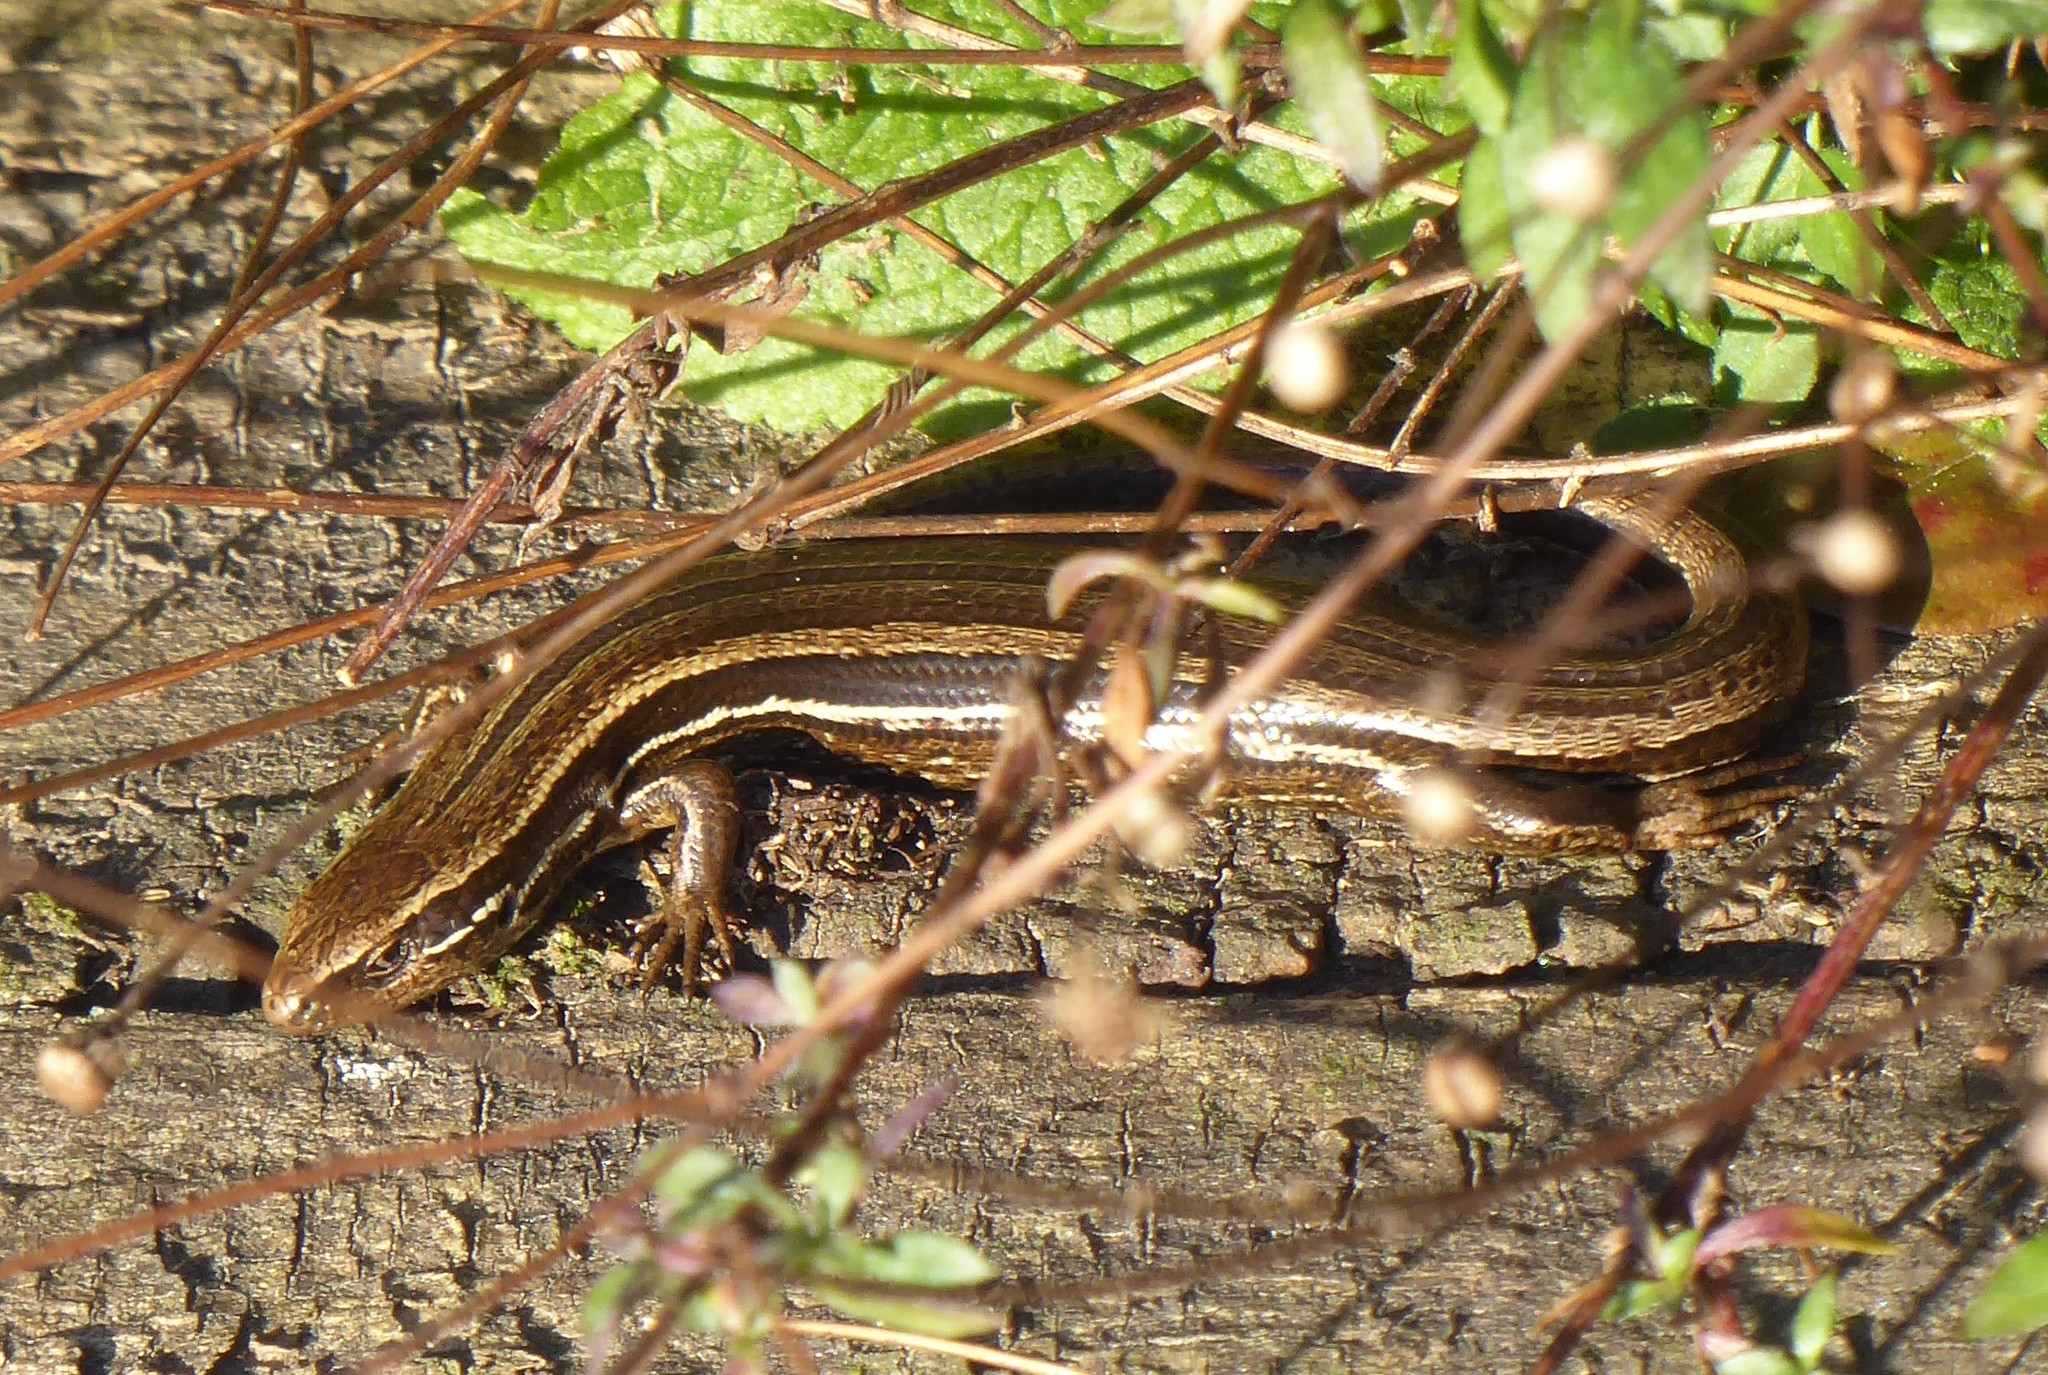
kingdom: Animalia
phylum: Chordata
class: Squamata
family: Scincidae
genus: Oligosoma
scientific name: Oligosoma polychroma
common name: Common new zealand skink
